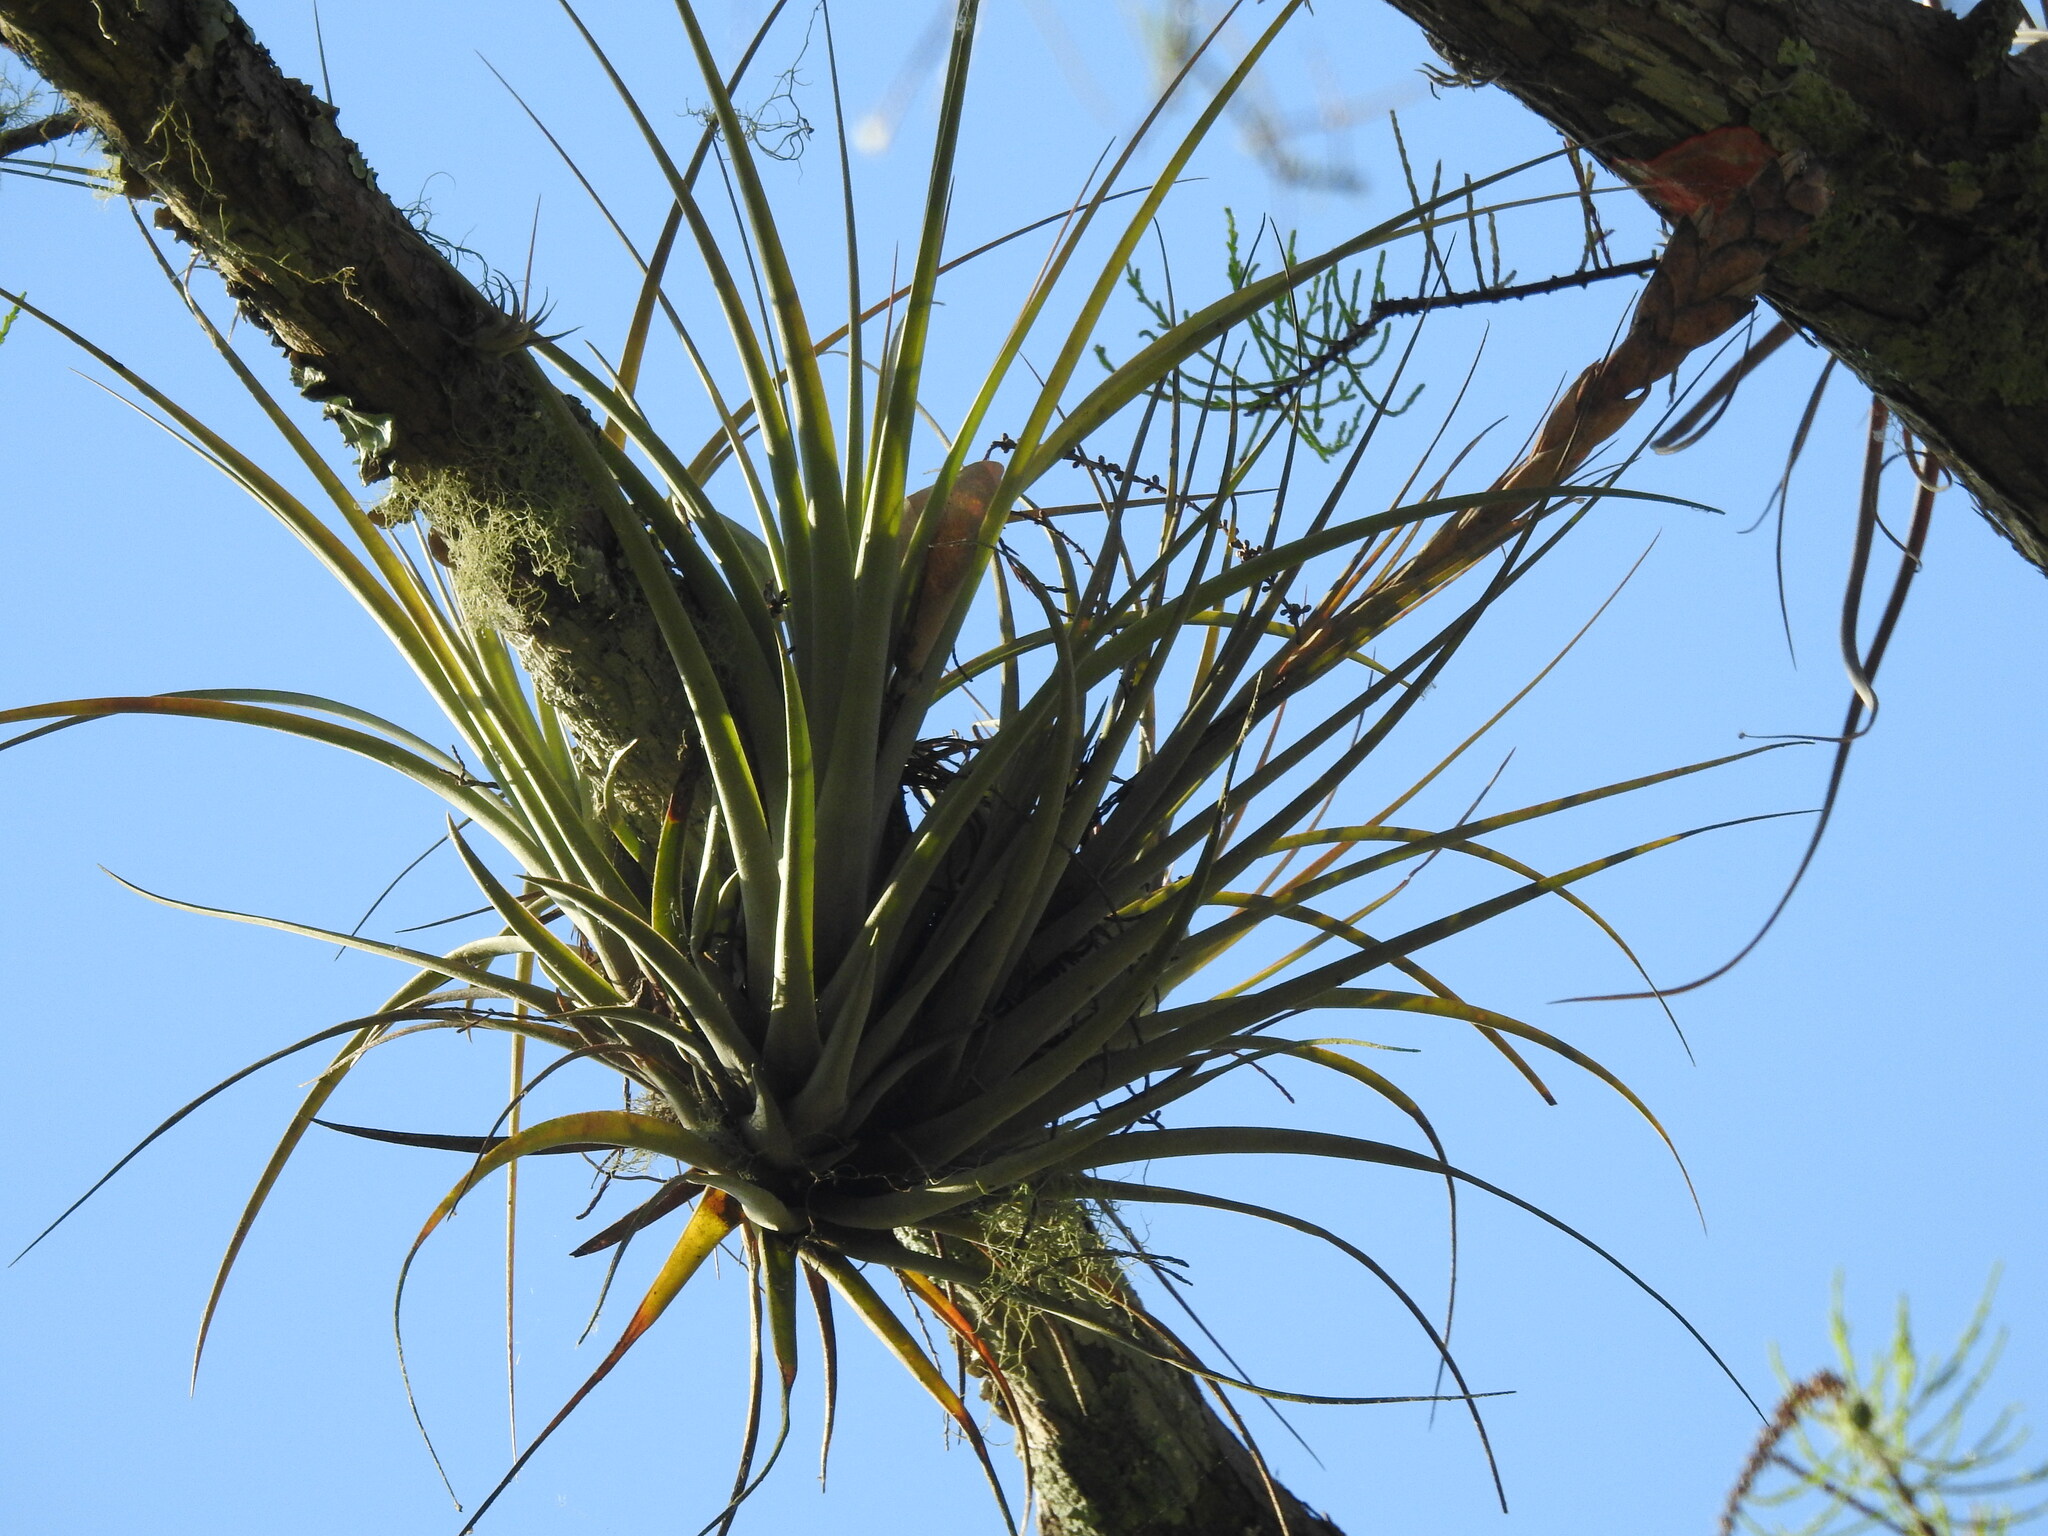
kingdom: Plantae
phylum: Tracheophyta
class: Liliopsida
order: Poales
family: Bromeliaceae
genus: Tillandsia
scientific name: Tillandsia fasciculata
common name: Giant airplant
